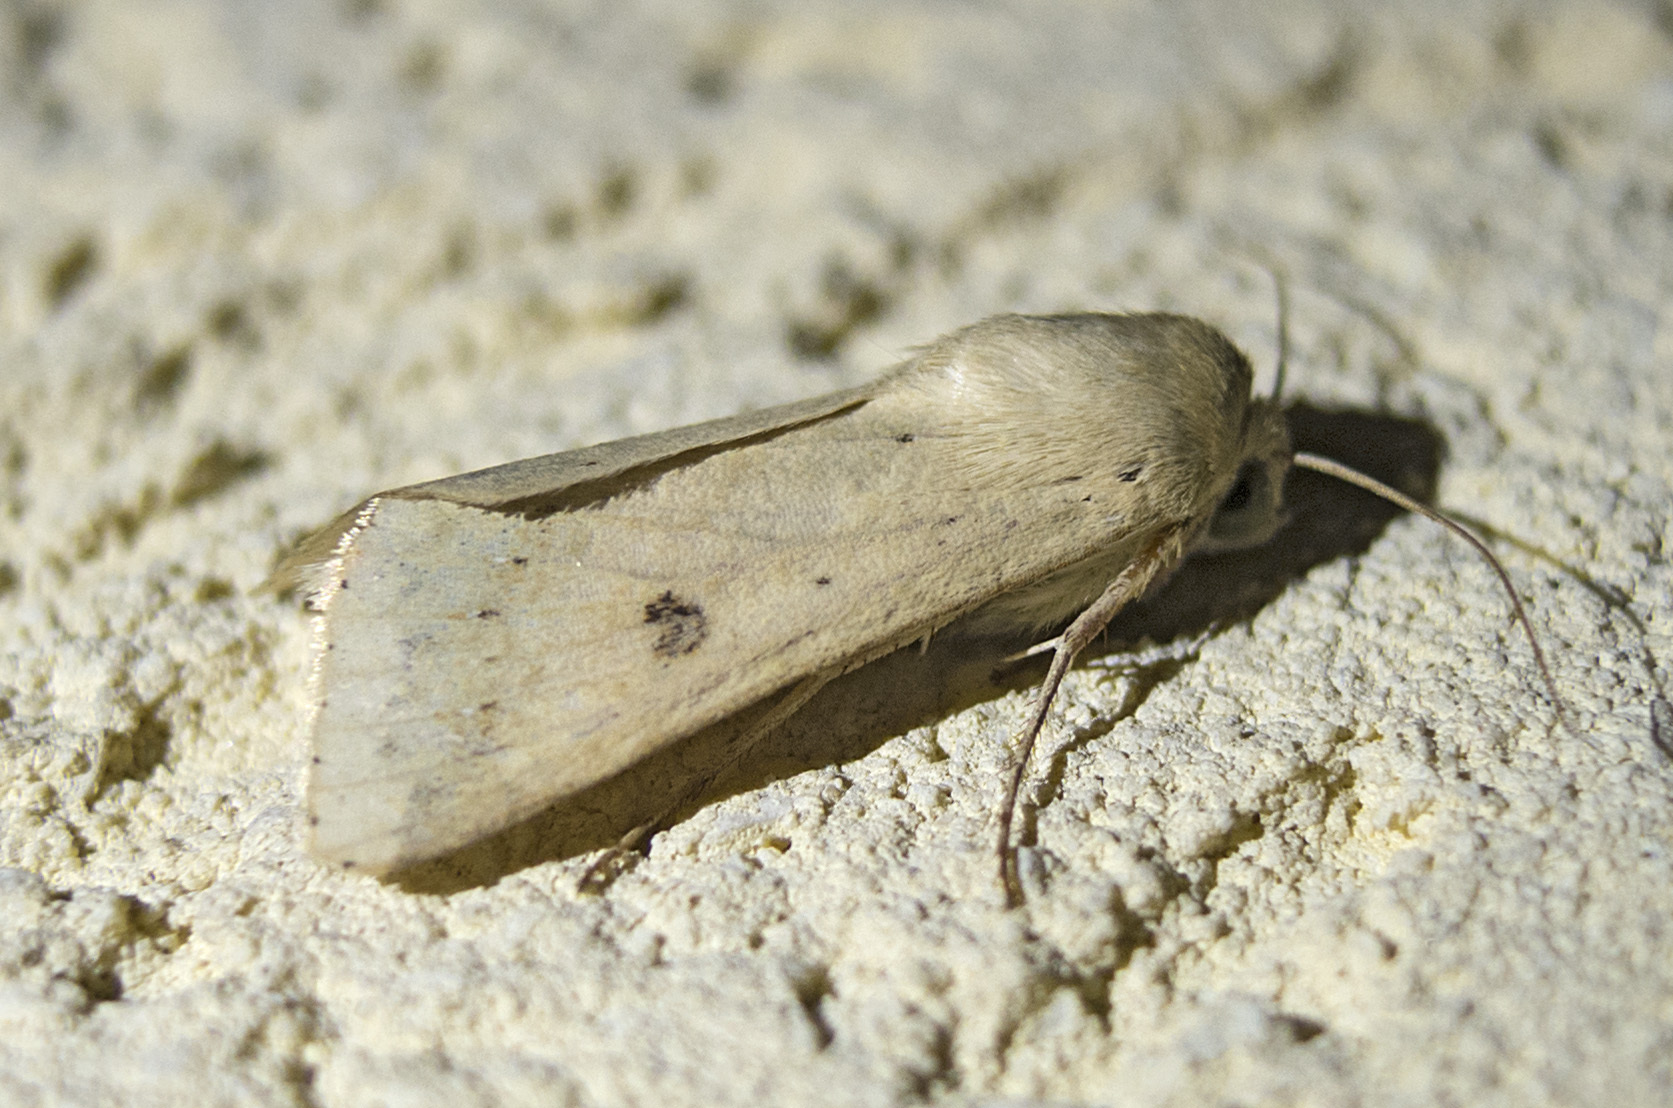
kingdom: Animalia
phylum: Arthropoda
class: Insecta
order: Lepidoptera
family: Noctuidae
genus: Helicoverpa
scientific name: Helicoverpa armigera
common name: Cotton bollworm
